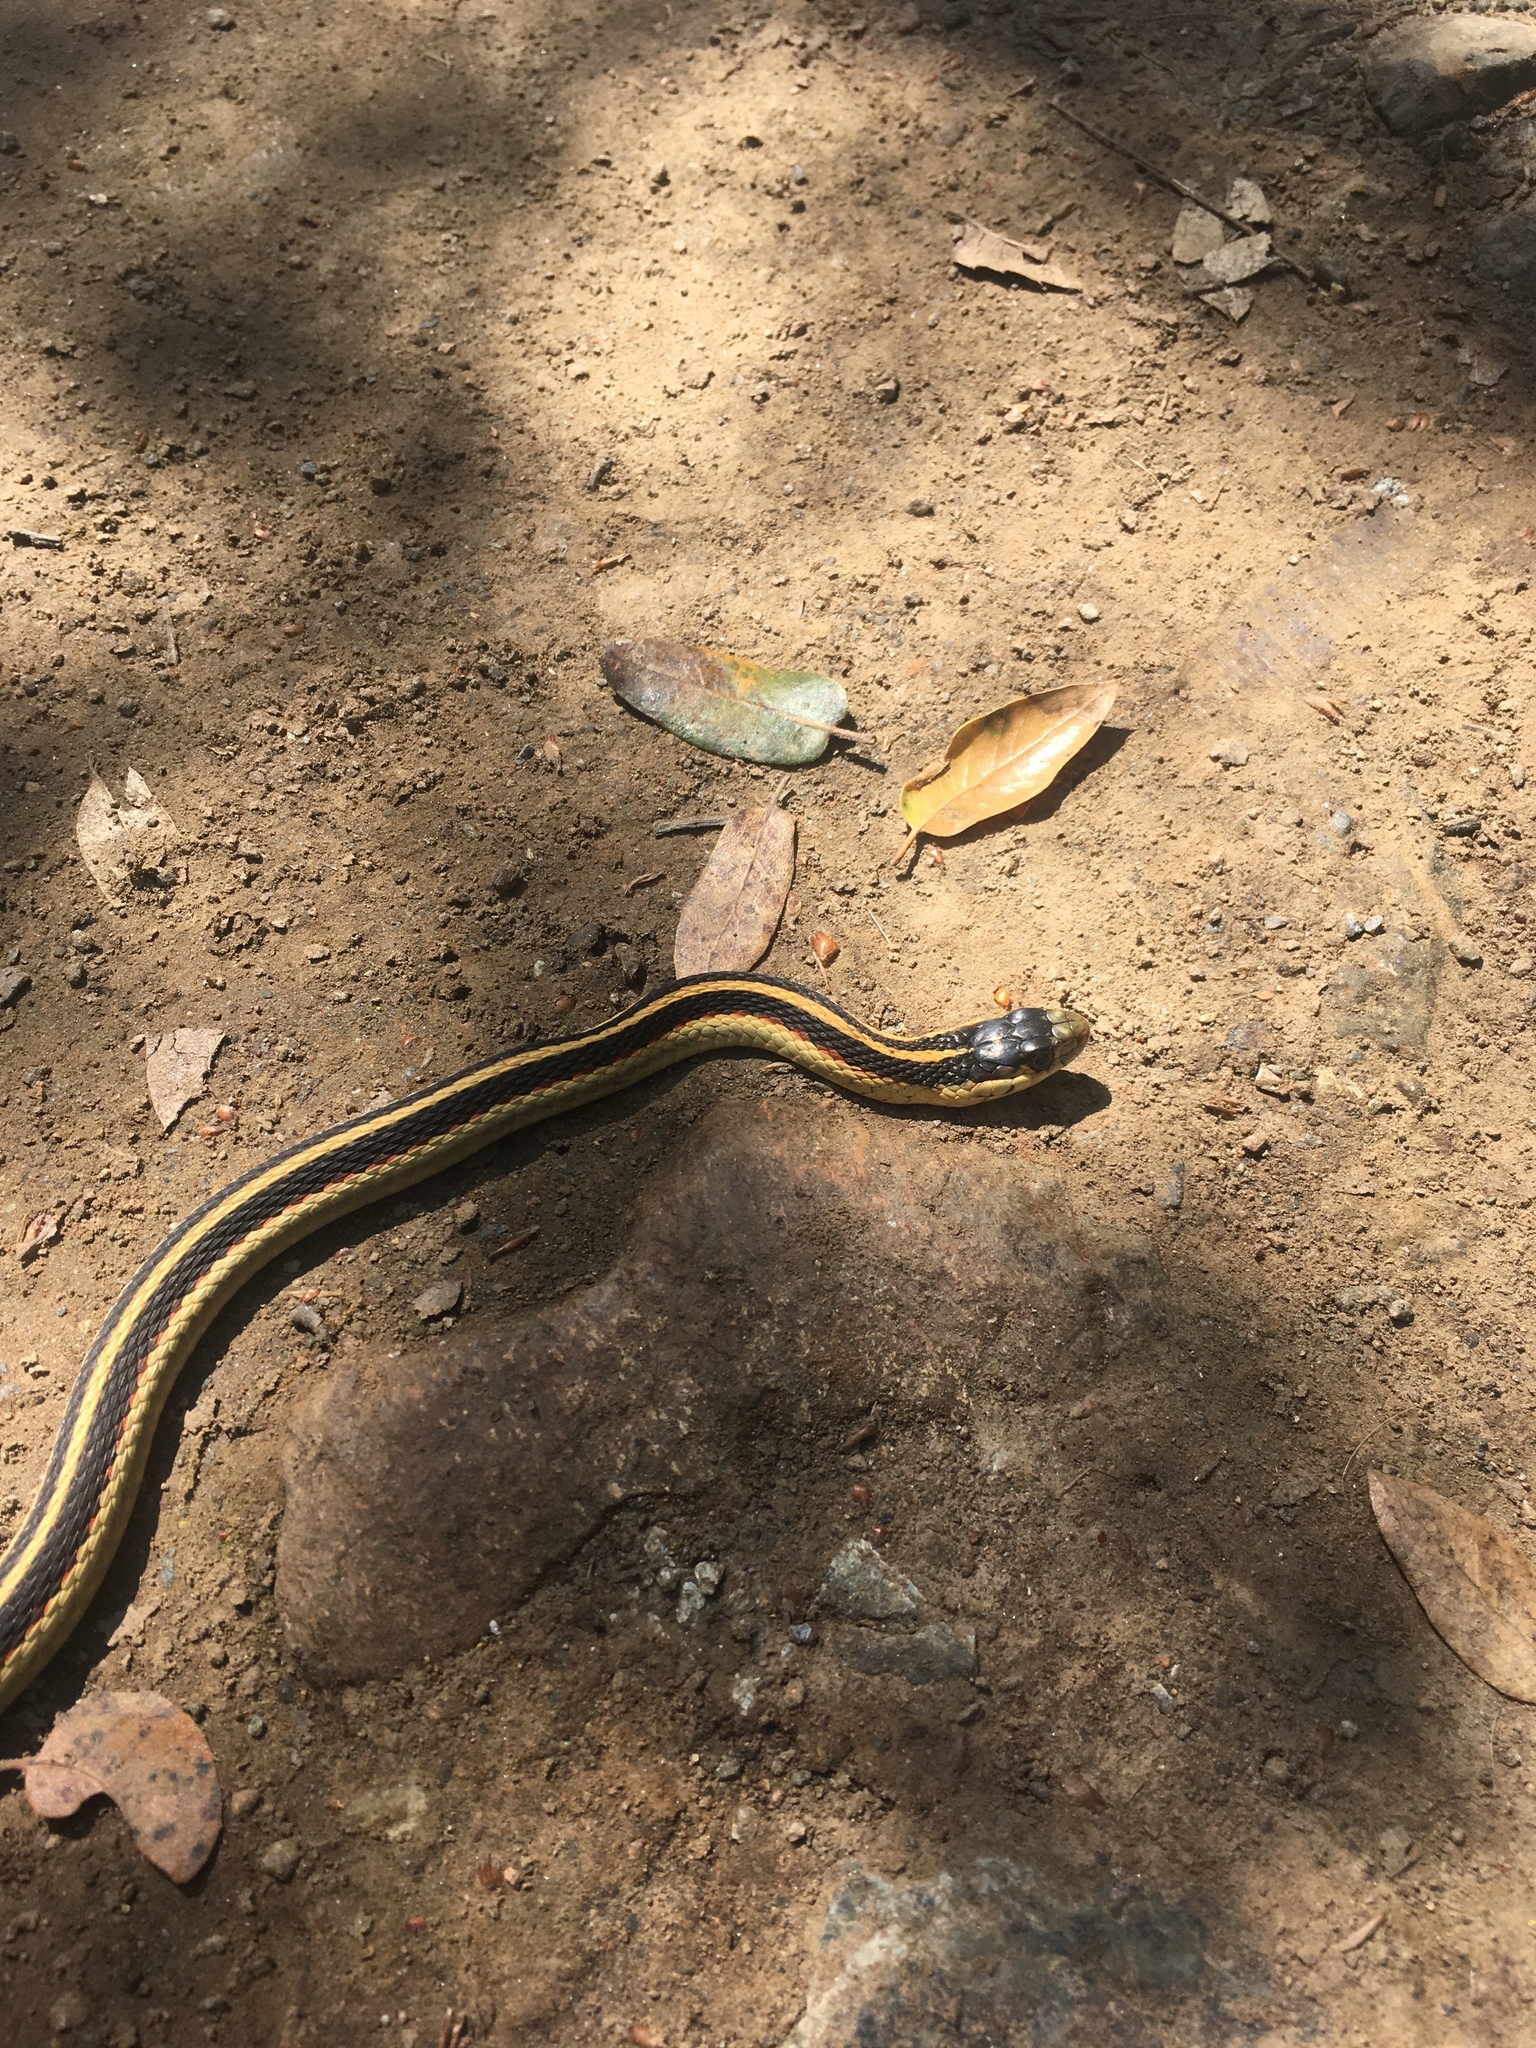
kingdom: Animalia
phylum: Chordata
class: Squamata
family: Colubridae
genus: Thamnophis
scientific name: Thamnophis sirtalis
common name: Common garter snake
